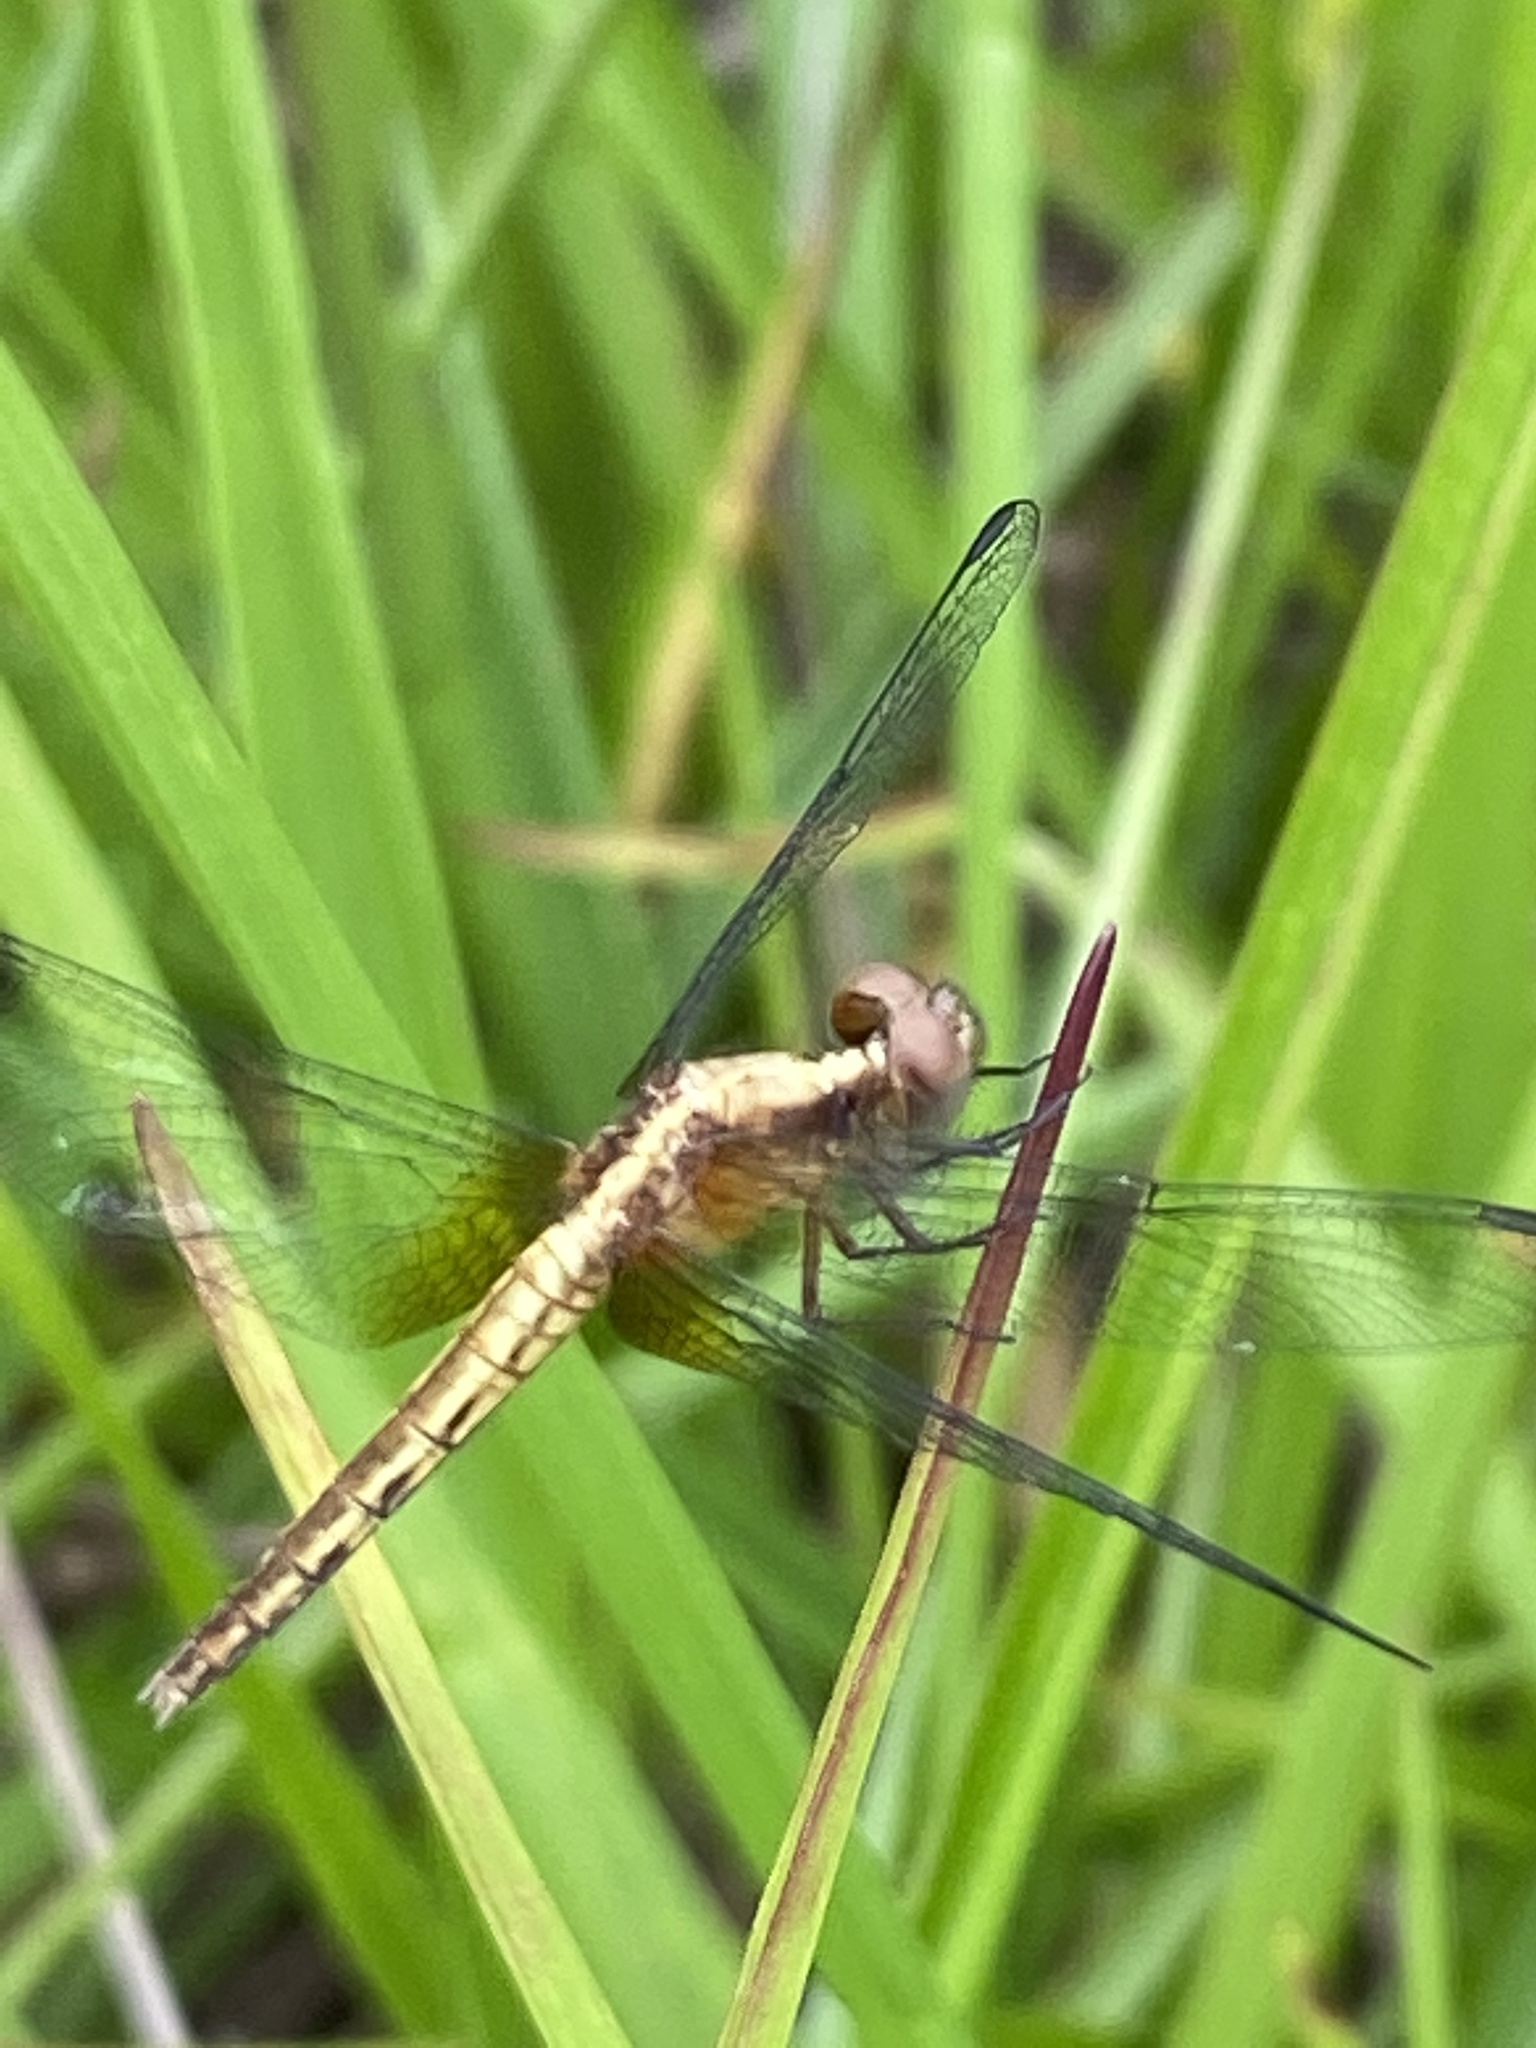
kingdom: Animalia
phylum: Arthropoda
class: Insecta
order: Odonata
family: Libellulidae
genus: Erythrodiplax
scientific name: Erythrodiplax avittata
